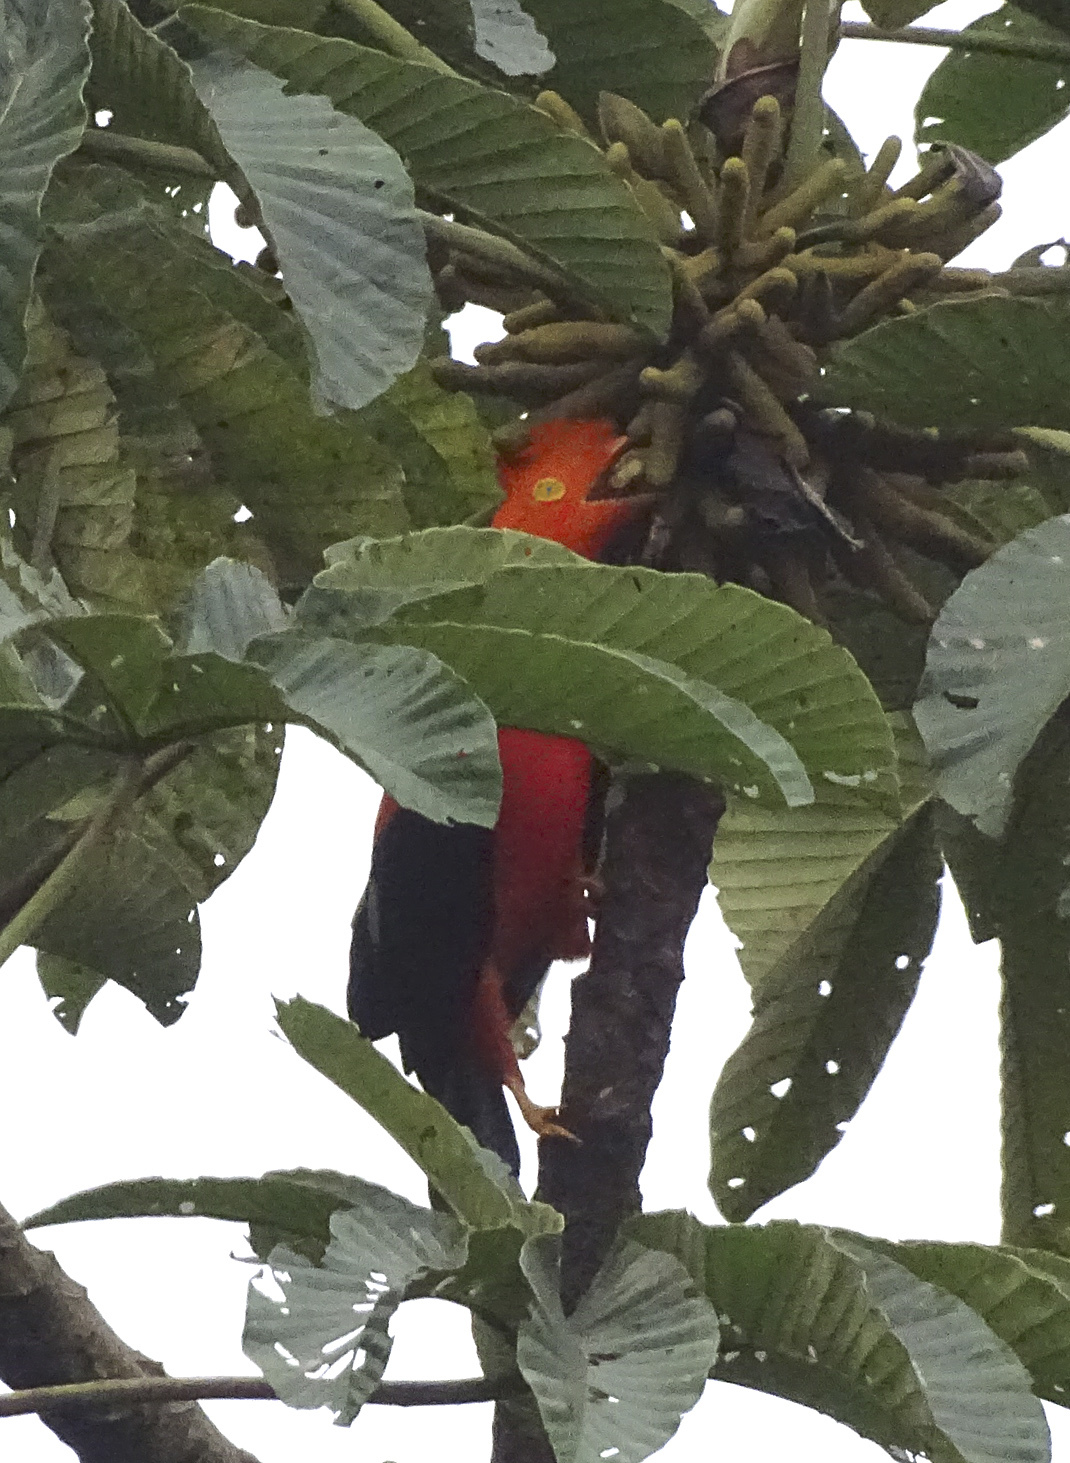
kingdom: Animalia
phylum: Chordata
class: Aves
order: Passeriformes
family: Cotingidae
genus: Rupicola
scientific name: Rupicola peruvianus
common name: Andean cock-of-the-rock
